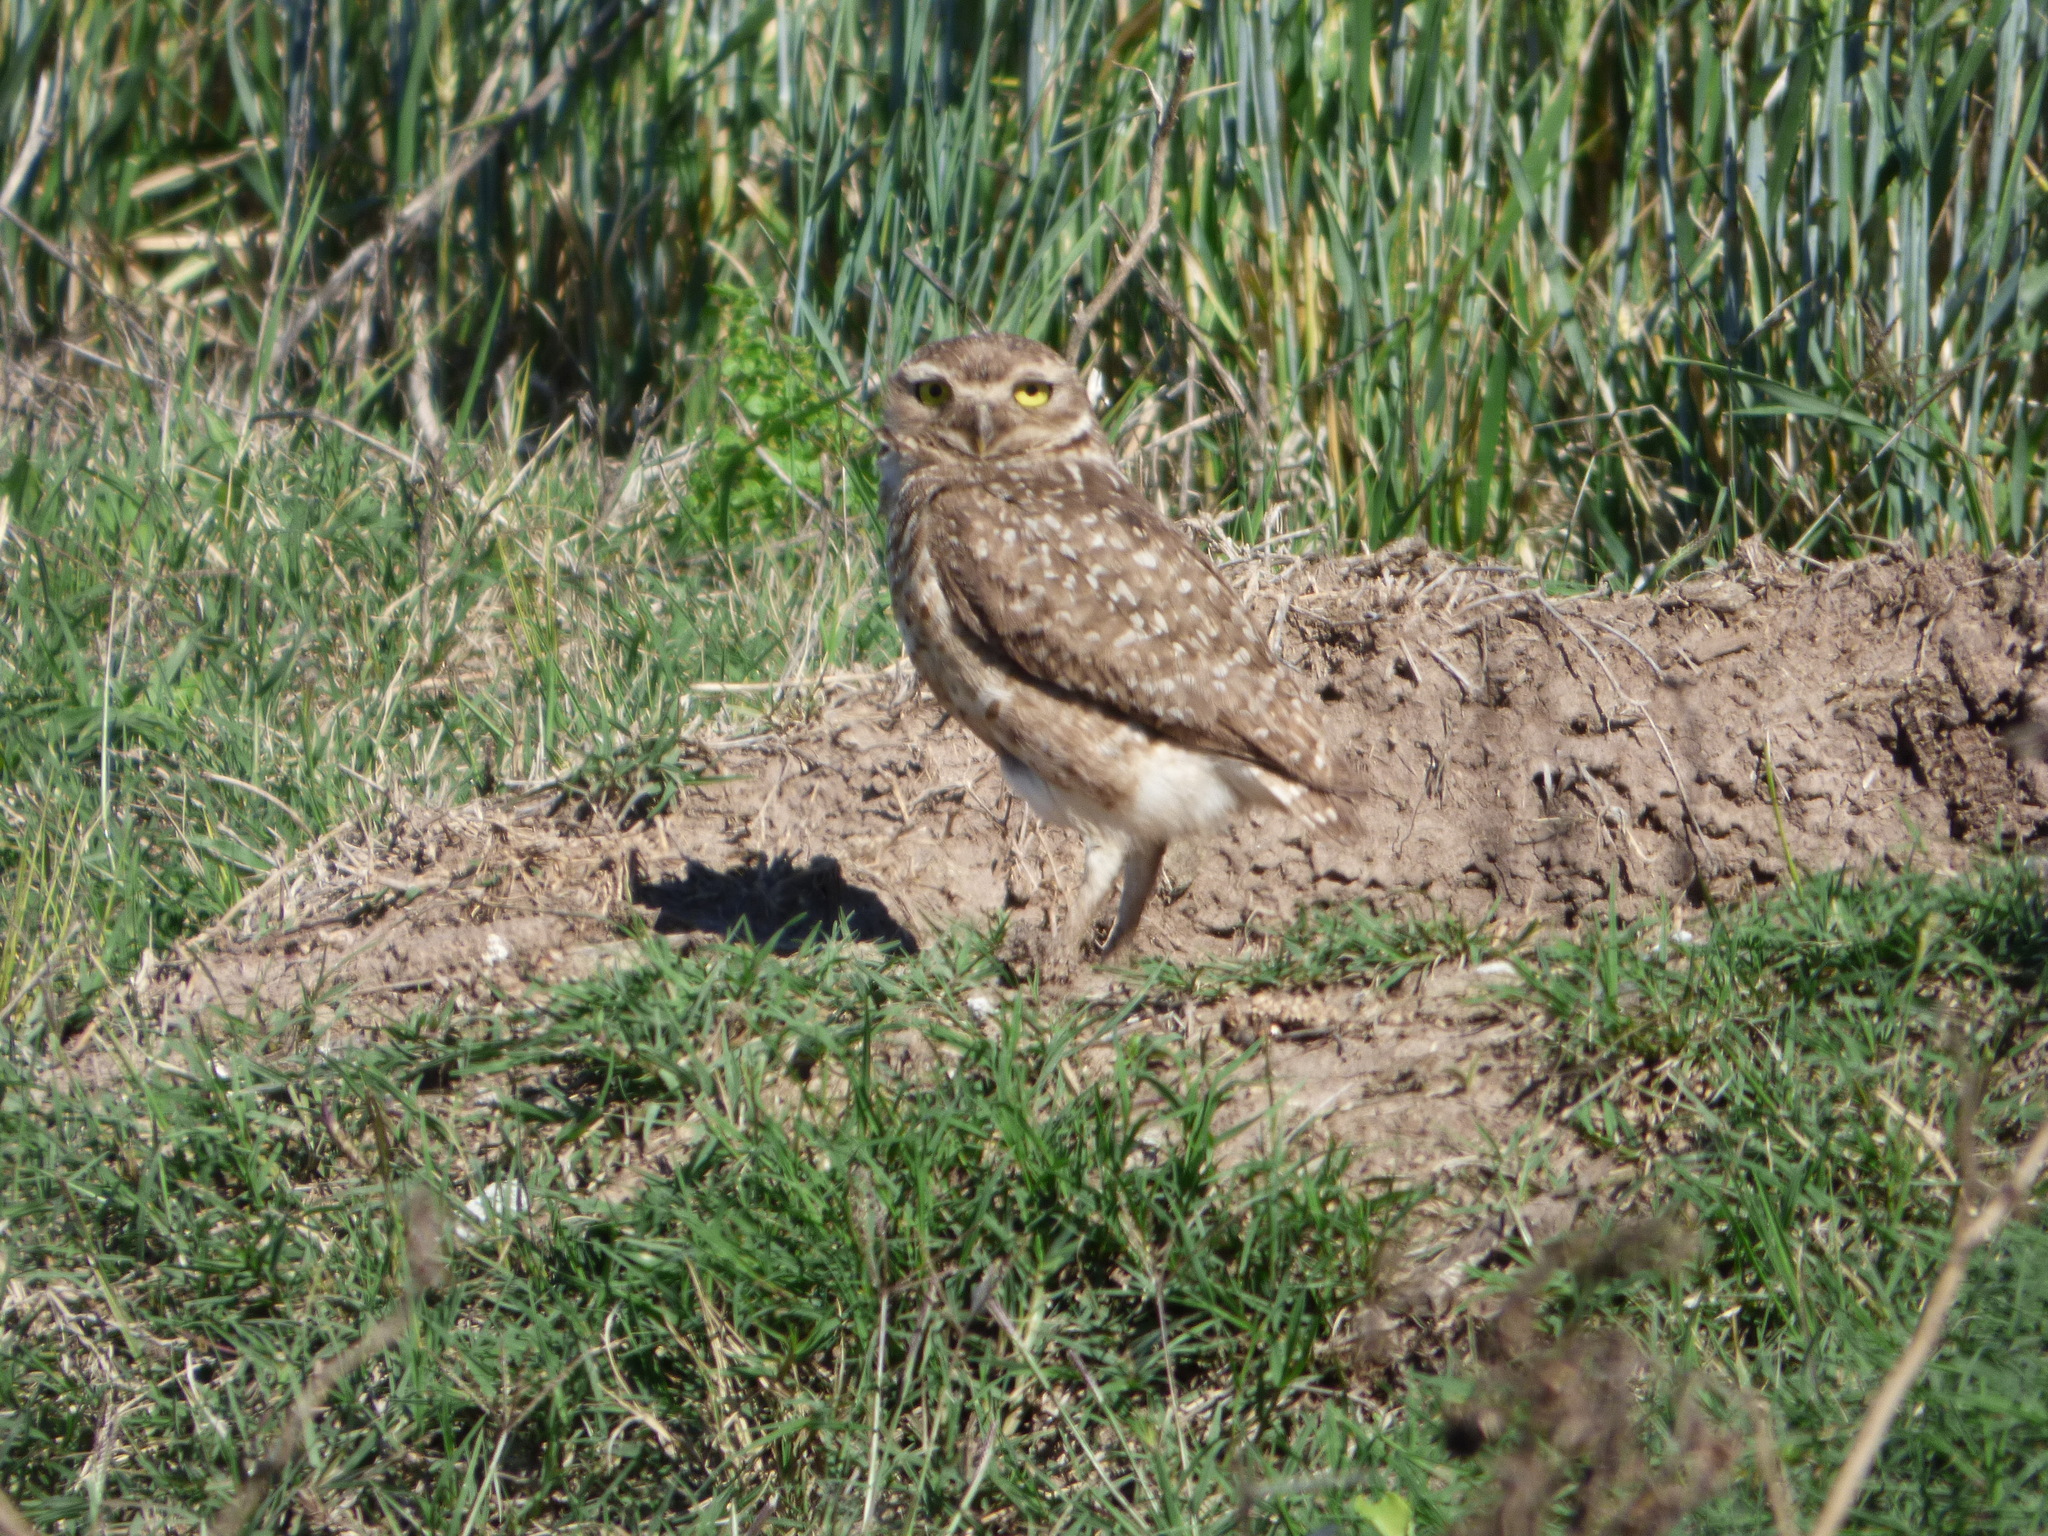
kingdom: Animalia
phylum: Chordata
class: Aves
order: Strigiformes
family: Strigidae
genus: Athene
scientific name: Athene cunicularia
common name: Burrowing owl
